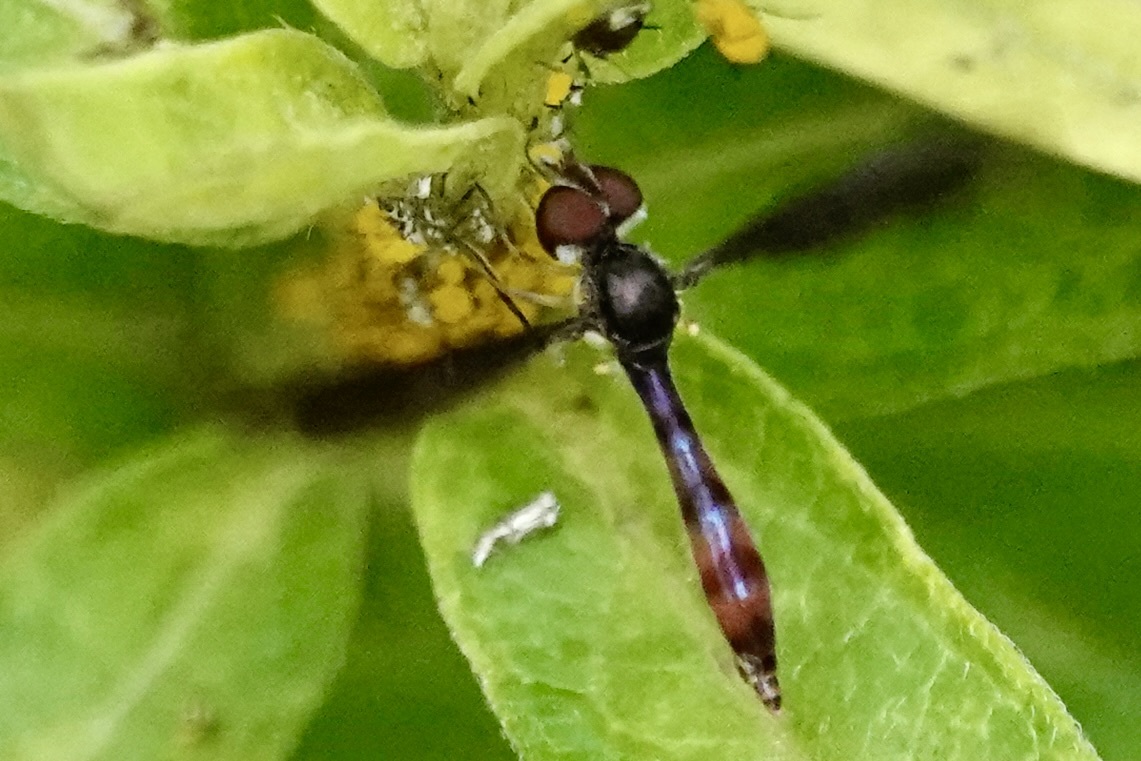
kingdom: Animalia
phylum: Arthropoda
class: Insecta
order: Diptera
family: Syrphidae
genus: Ocyptamus
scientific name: Ocyptamus fuscipennis
